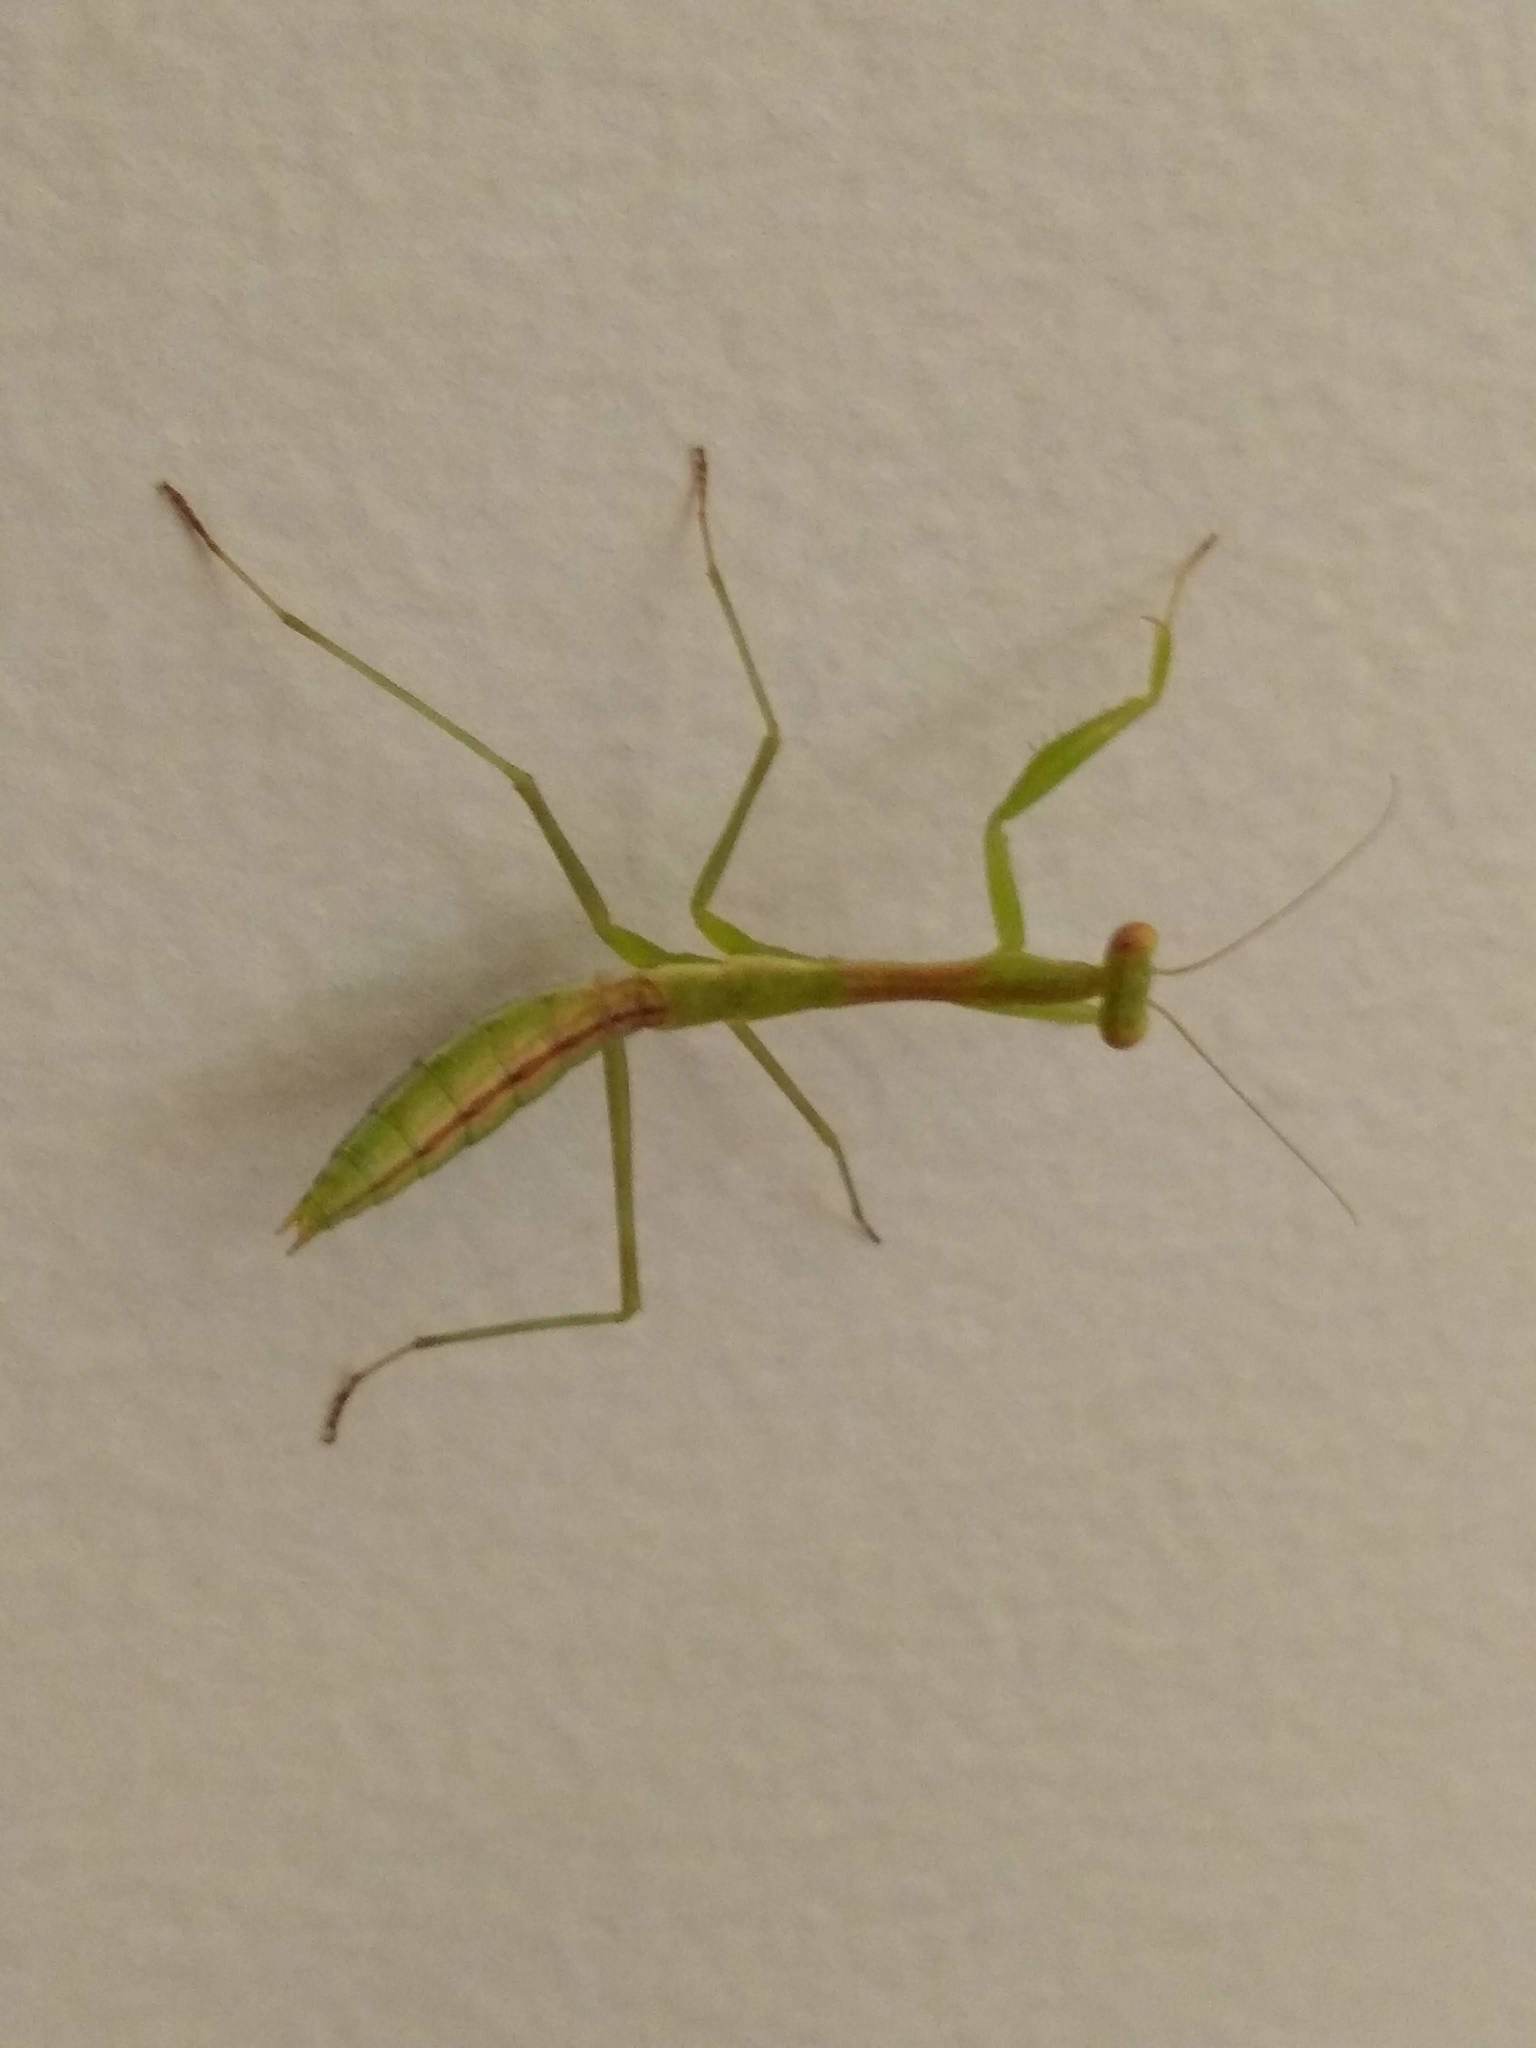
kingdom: Animalia
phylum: Arthropoda
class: Insecta
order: Mantodea
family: Miomantidae
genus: Miomantis
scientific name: Miomantis caffra
